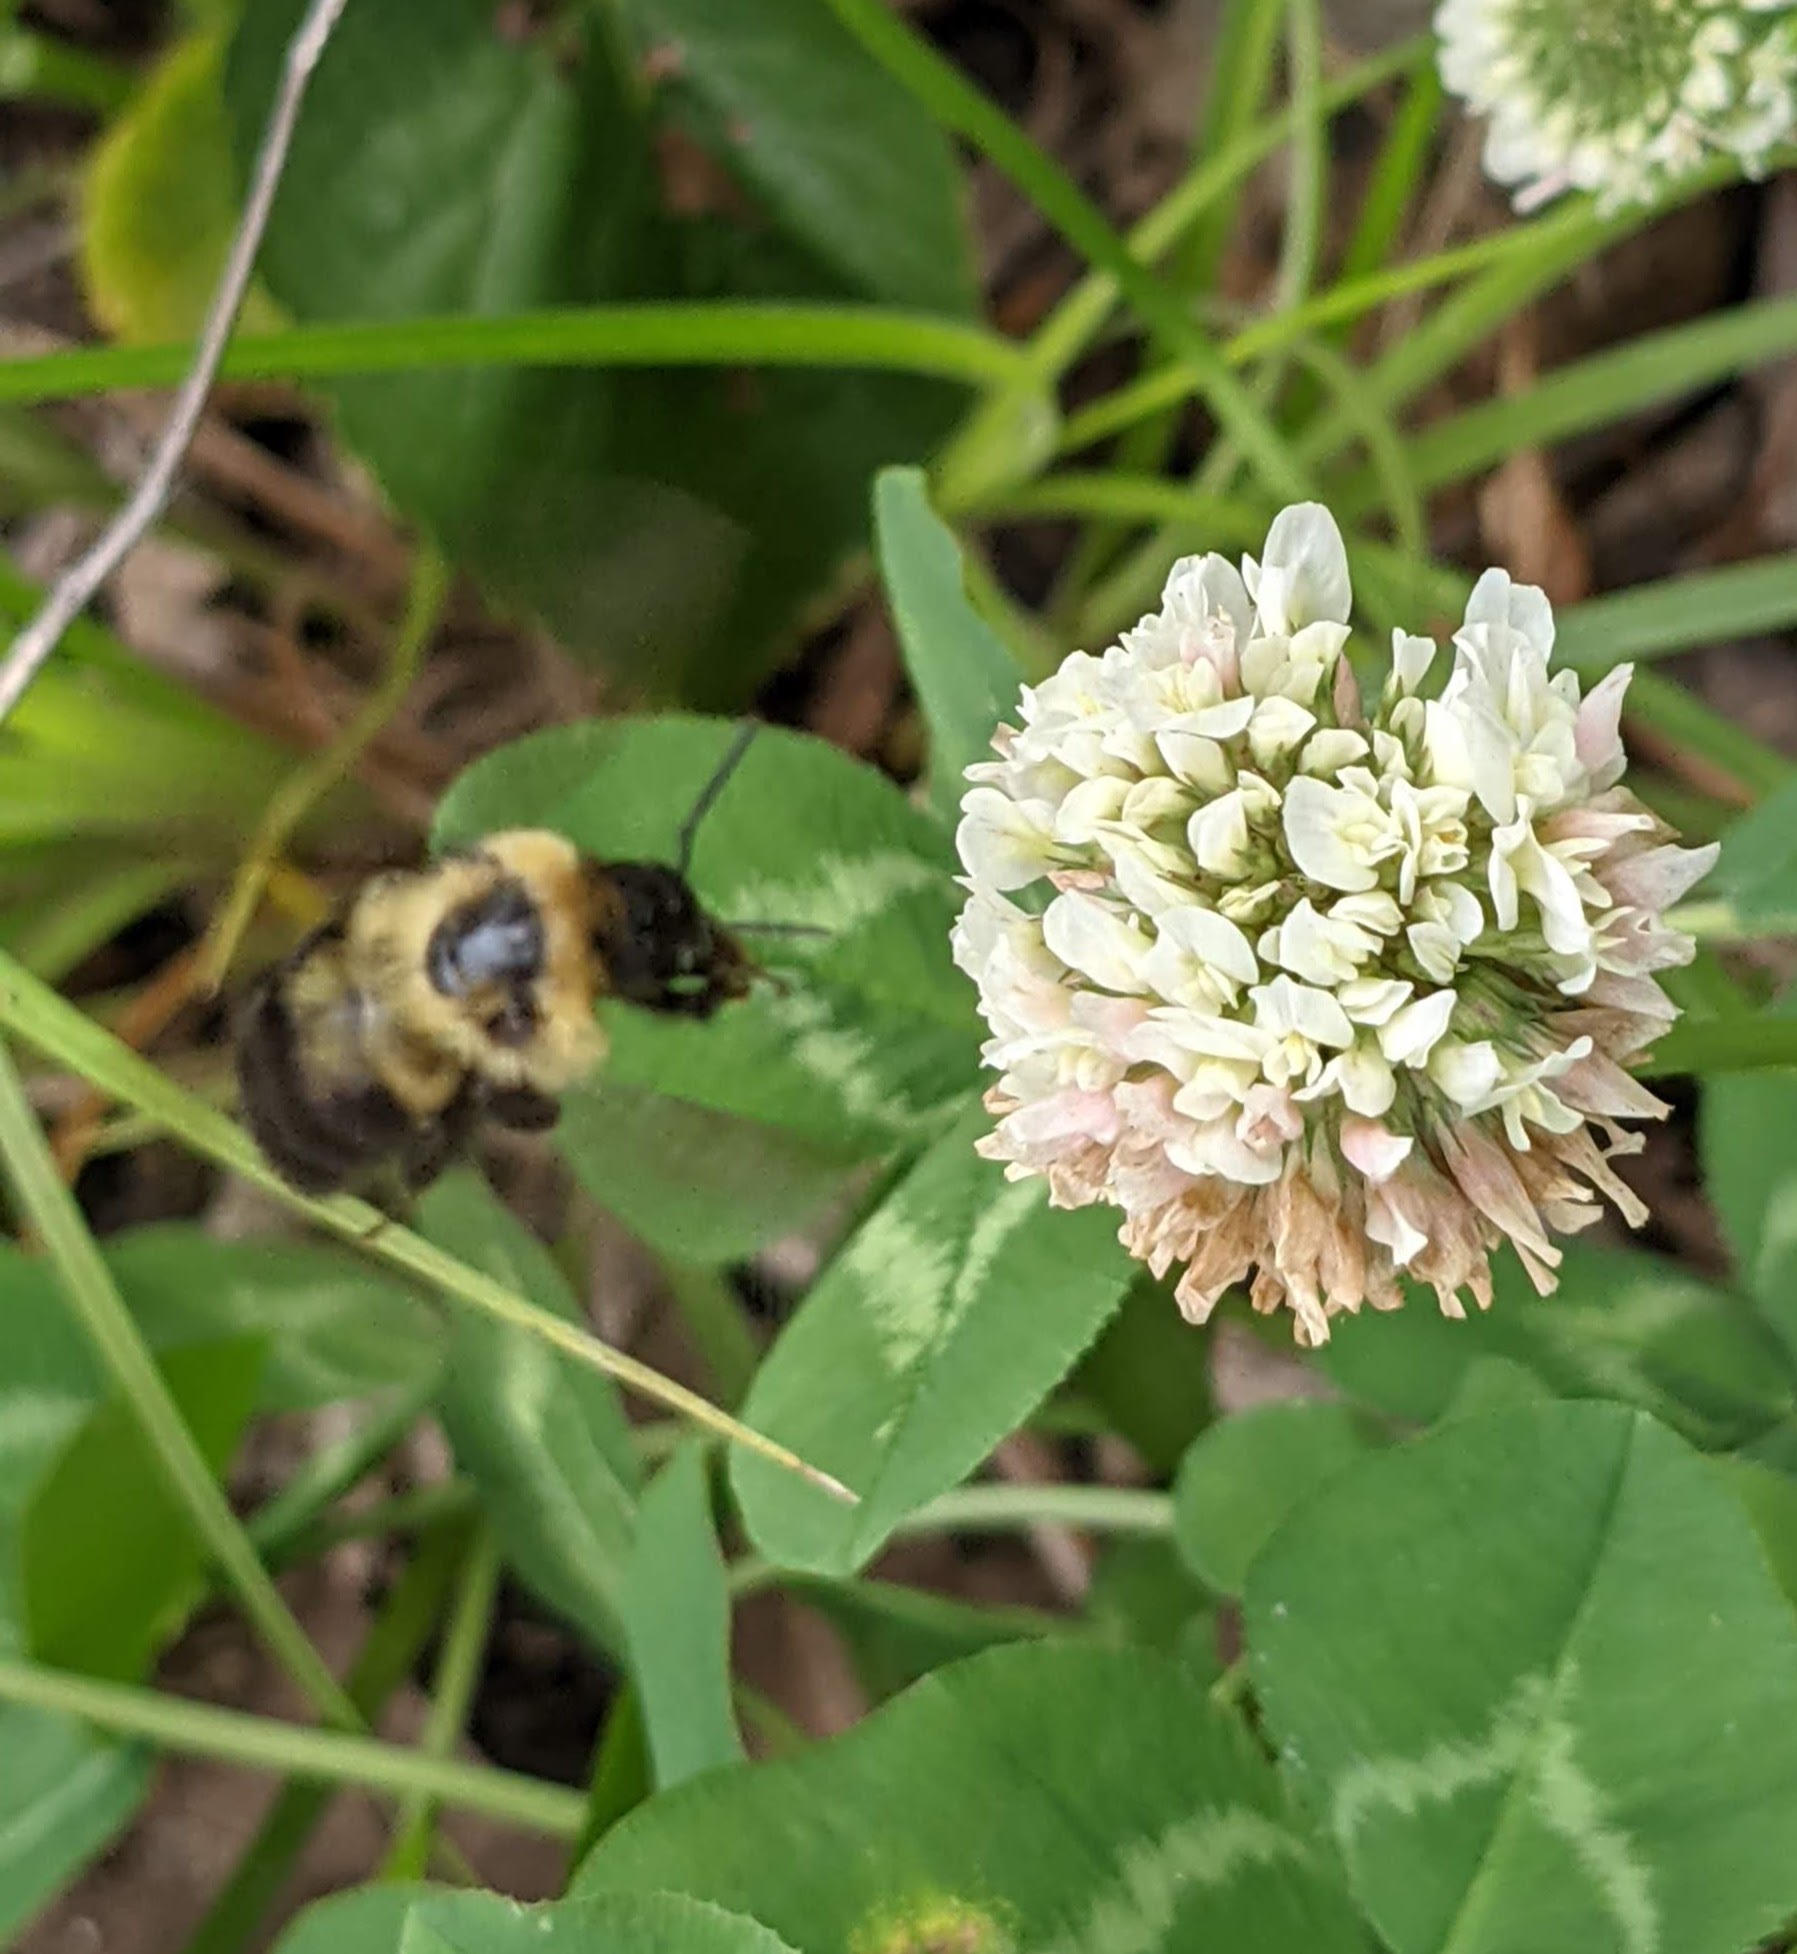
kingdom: Animalia
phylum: Arthropoda
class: Insecta
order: Hymenoptera
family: Apidae
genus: Bombus
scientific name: Bombus bimaculatus
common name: Two-spotted bumble bee
